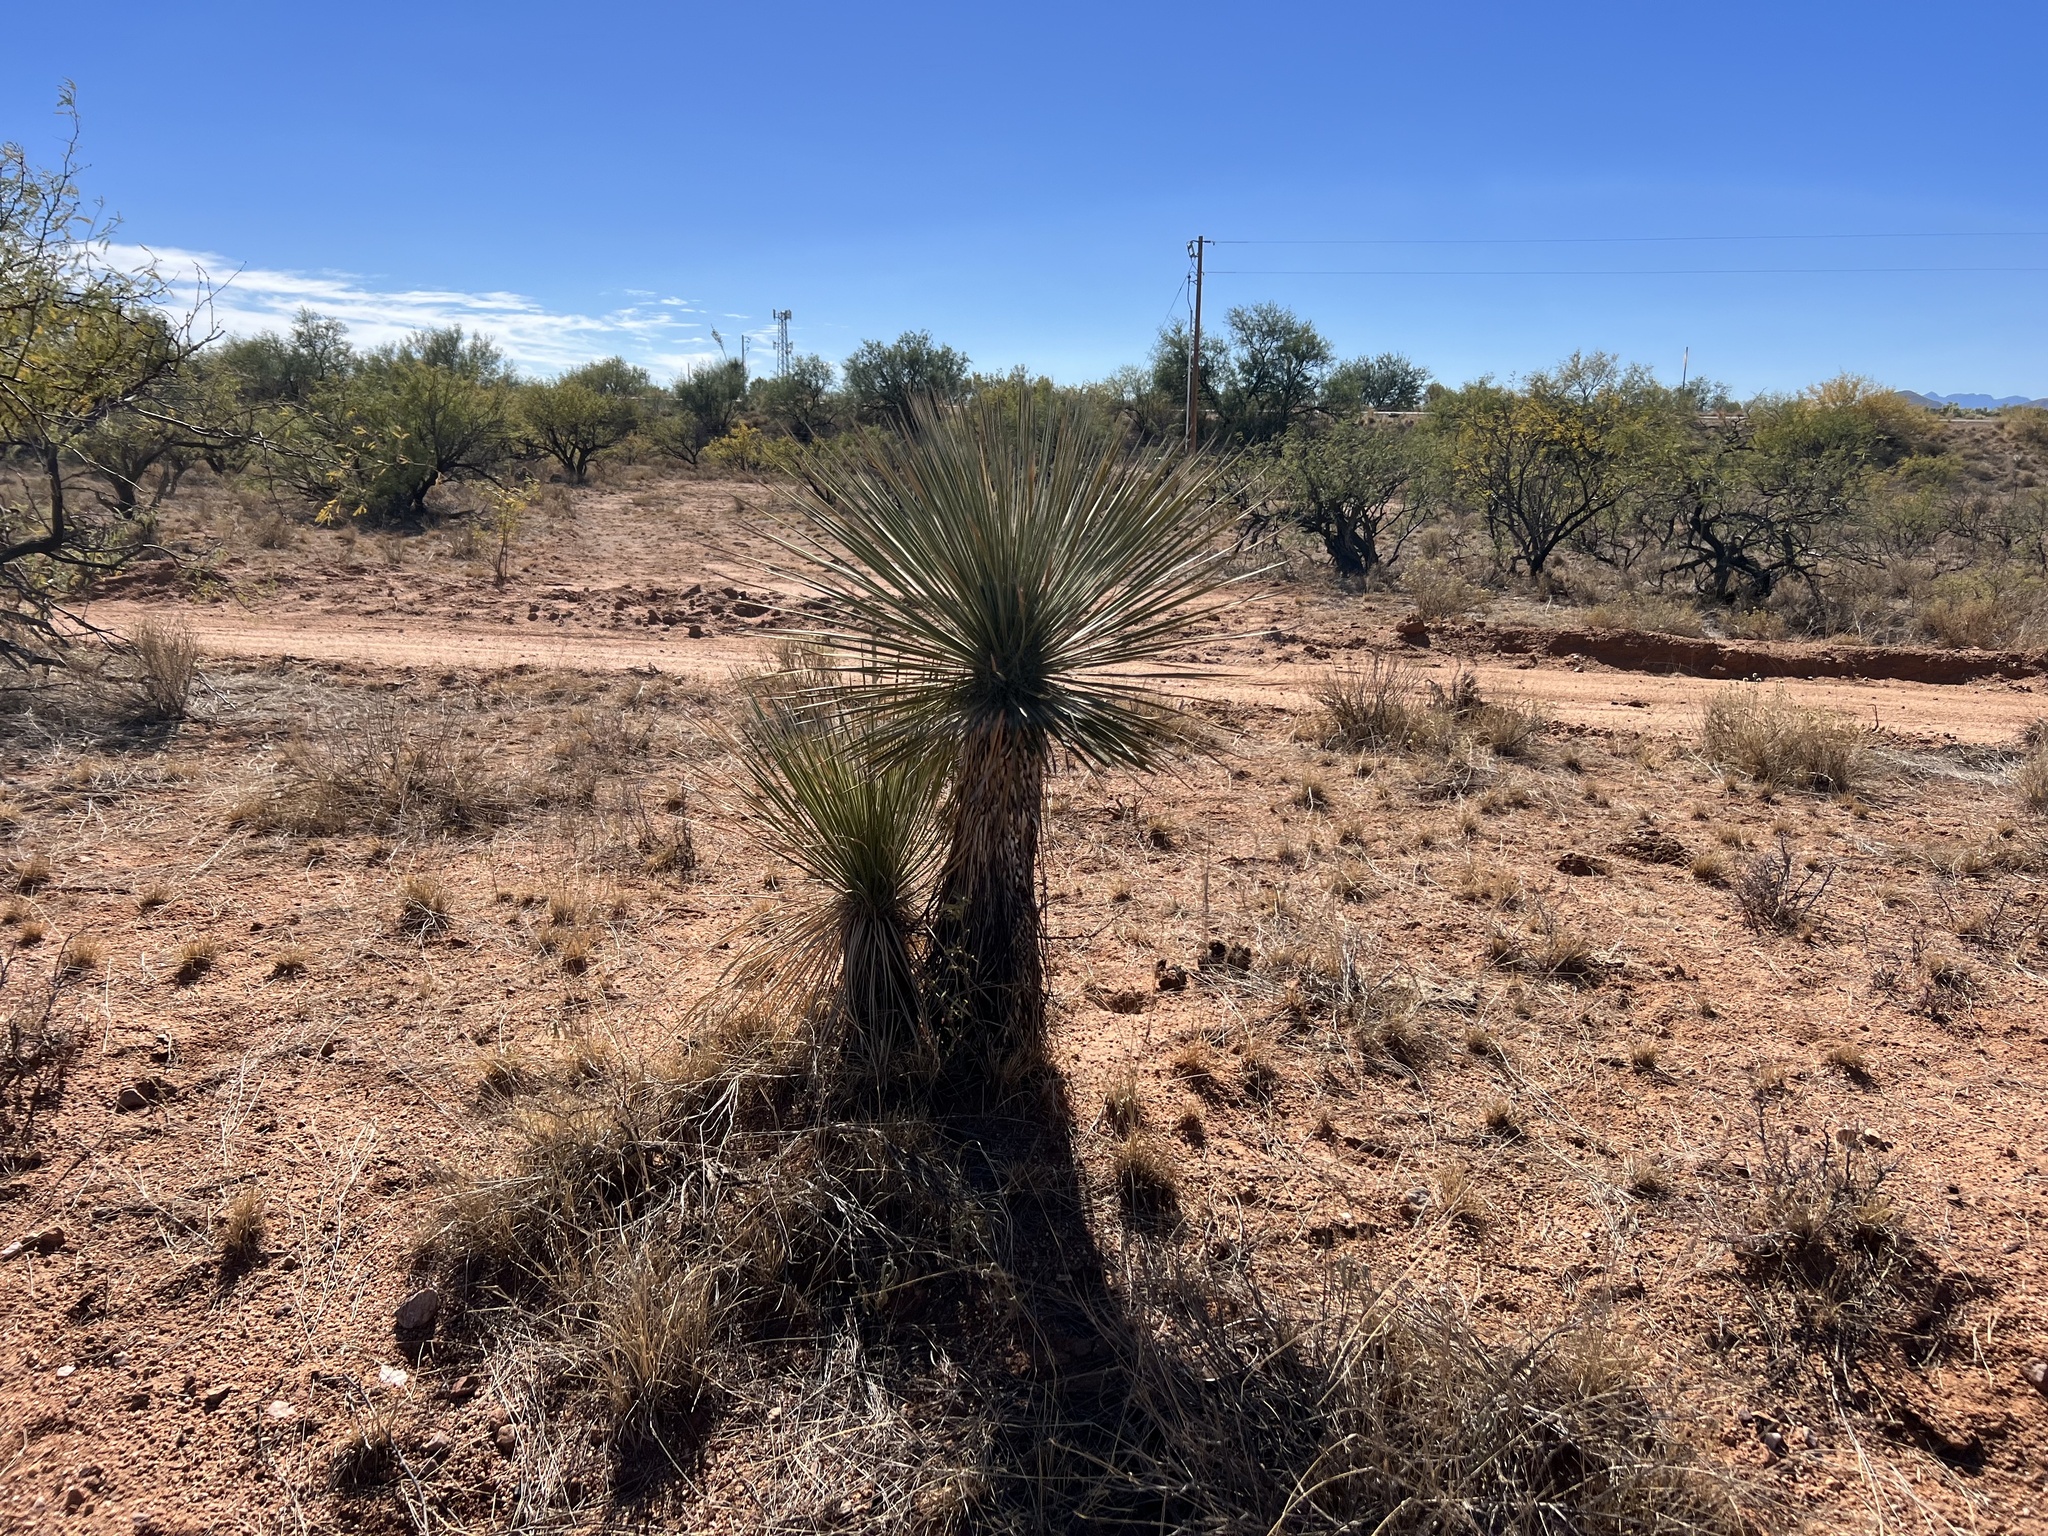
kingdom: Plantae
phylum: Tracheophyta
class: Liliopsida
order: Asparagales
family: Asparagaceae
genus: Yucca
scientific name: Yucca elata
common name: Palmella
